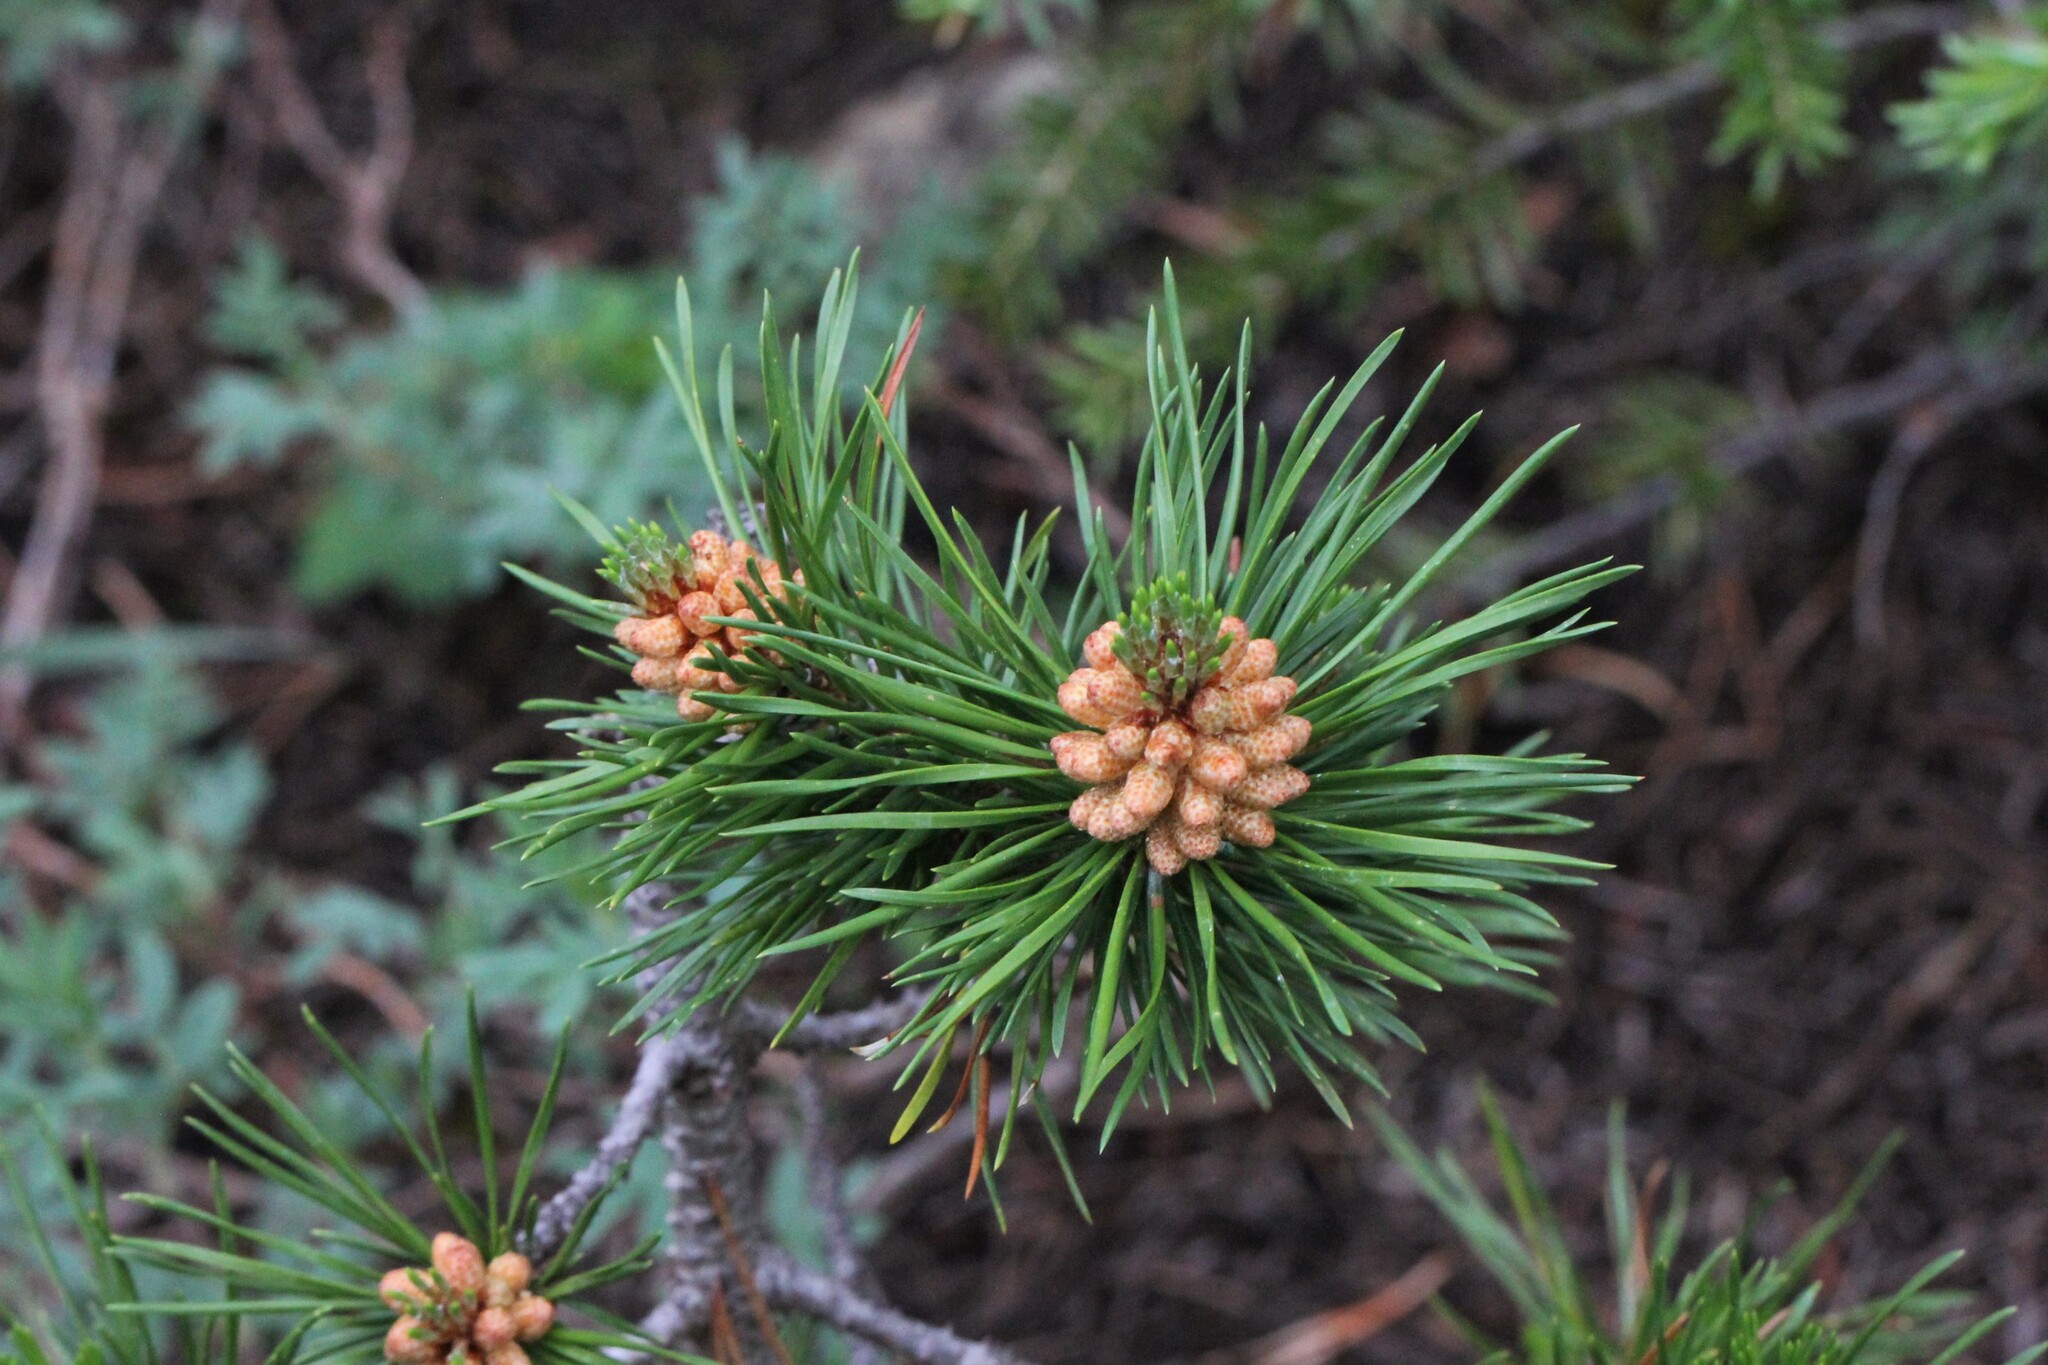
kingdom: Plantae
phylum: Tracheophyta
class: Pinopsida
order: Pinales
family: Pinaceae
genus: Pinus
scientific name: Pinus contorta
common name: Lodgepole pine
